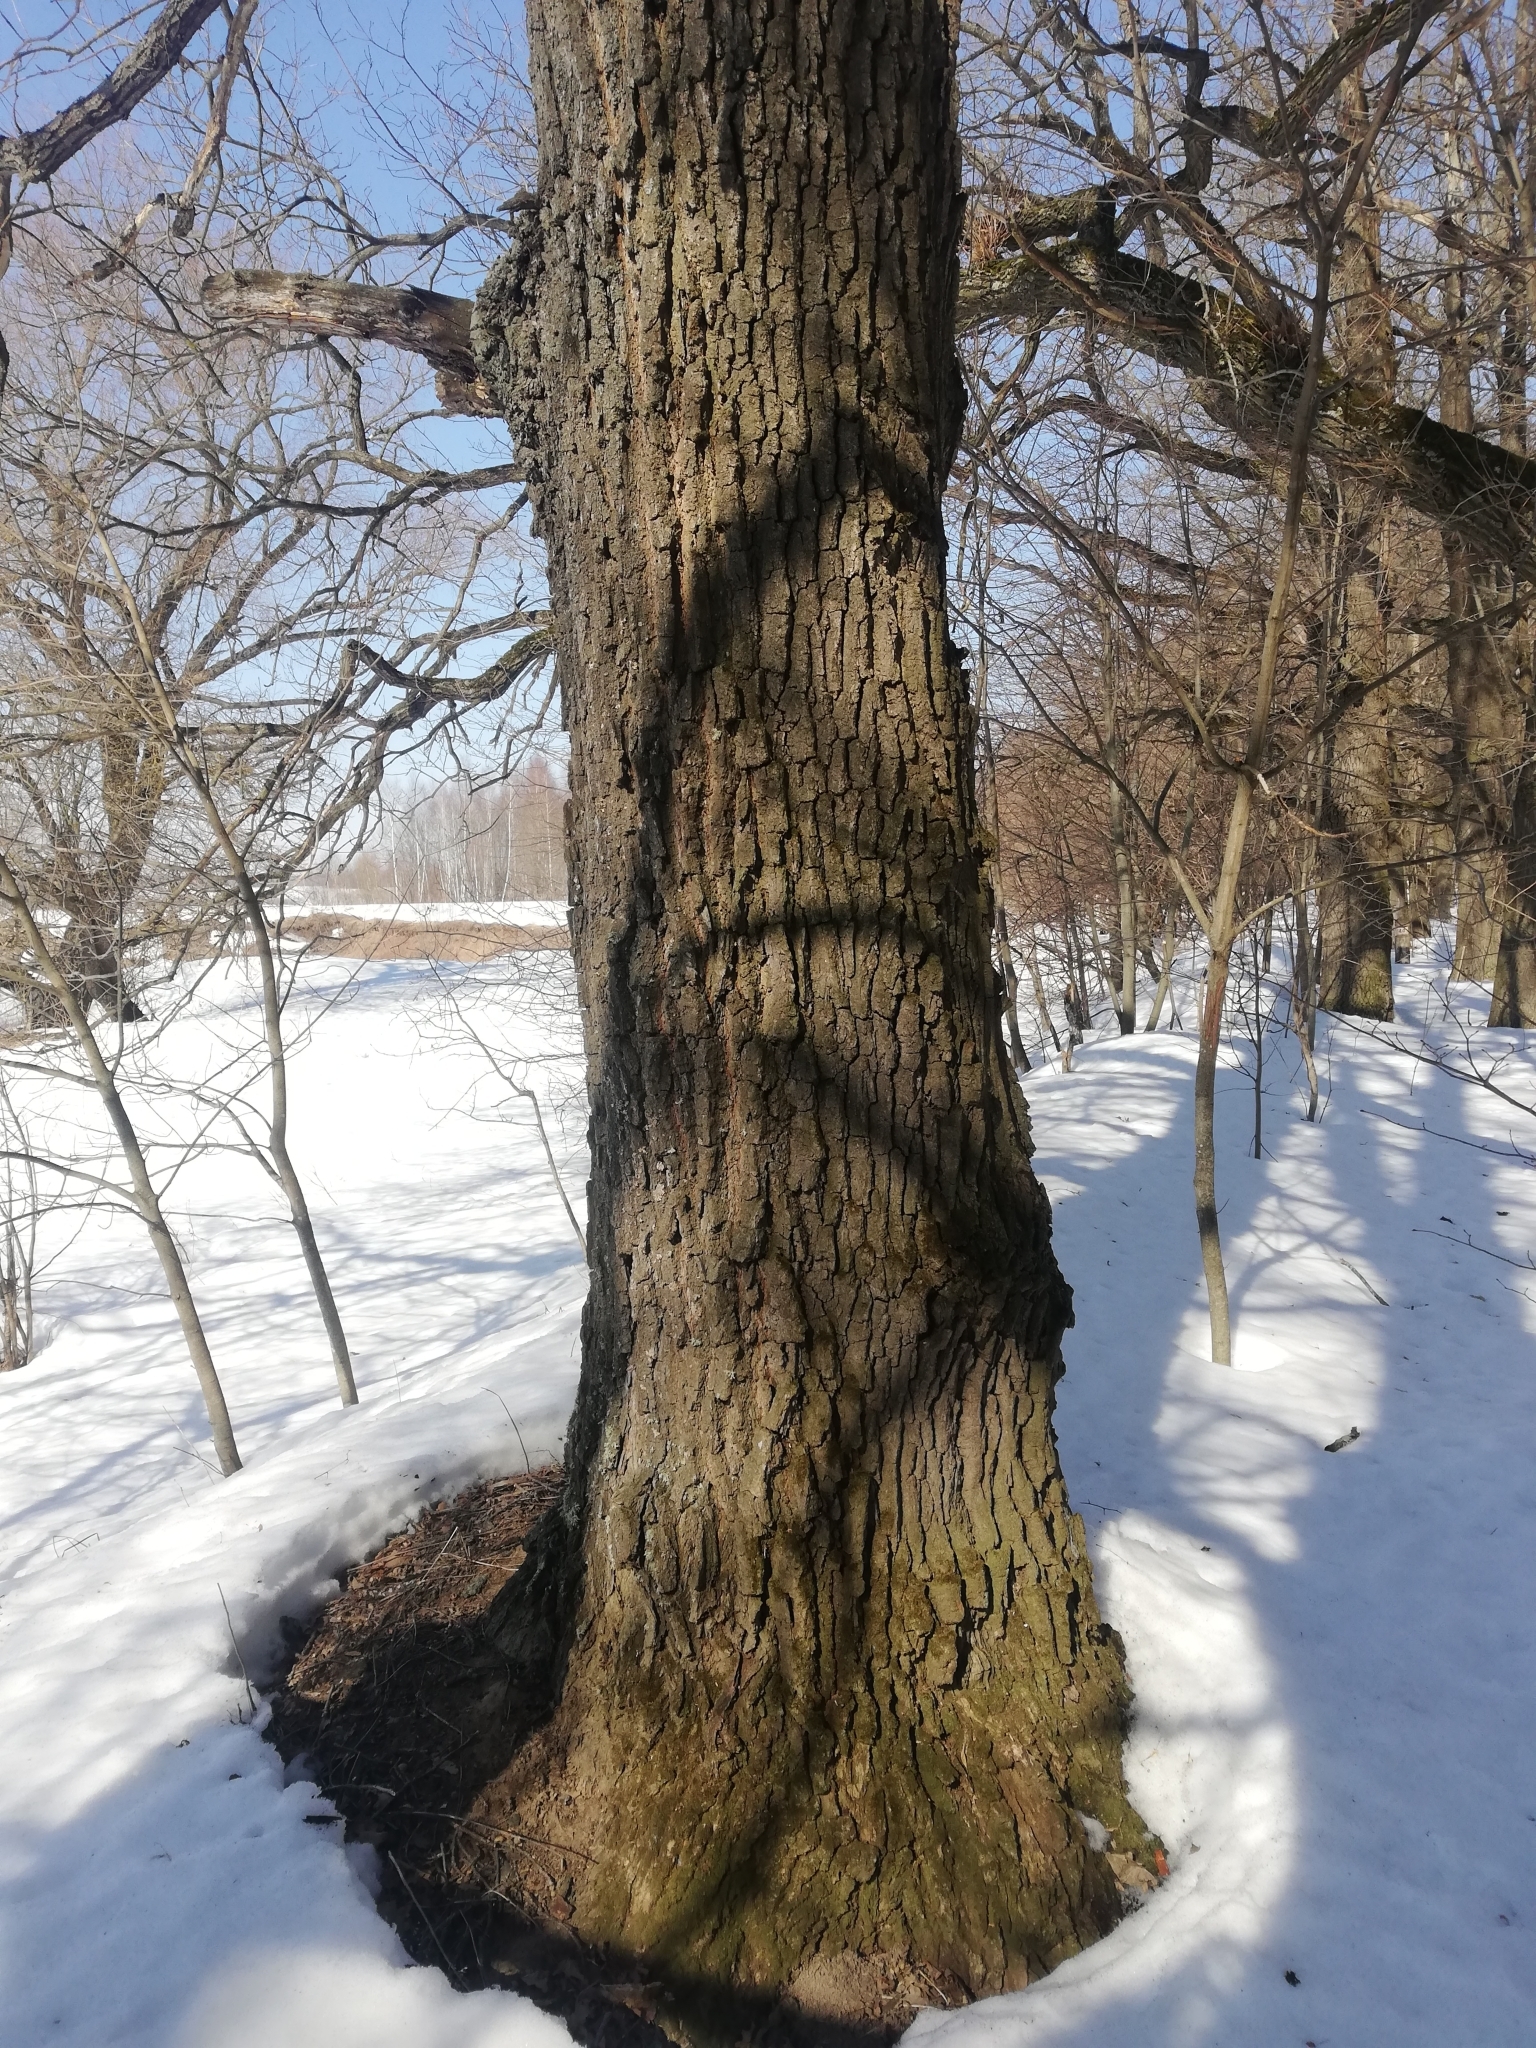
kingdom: Plantae
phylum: Tracheophyta
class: Magnoliopsida
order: Fagales
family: Fagaceae
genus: Quercus
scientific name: Quercus robur
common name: Pedunculate oak
